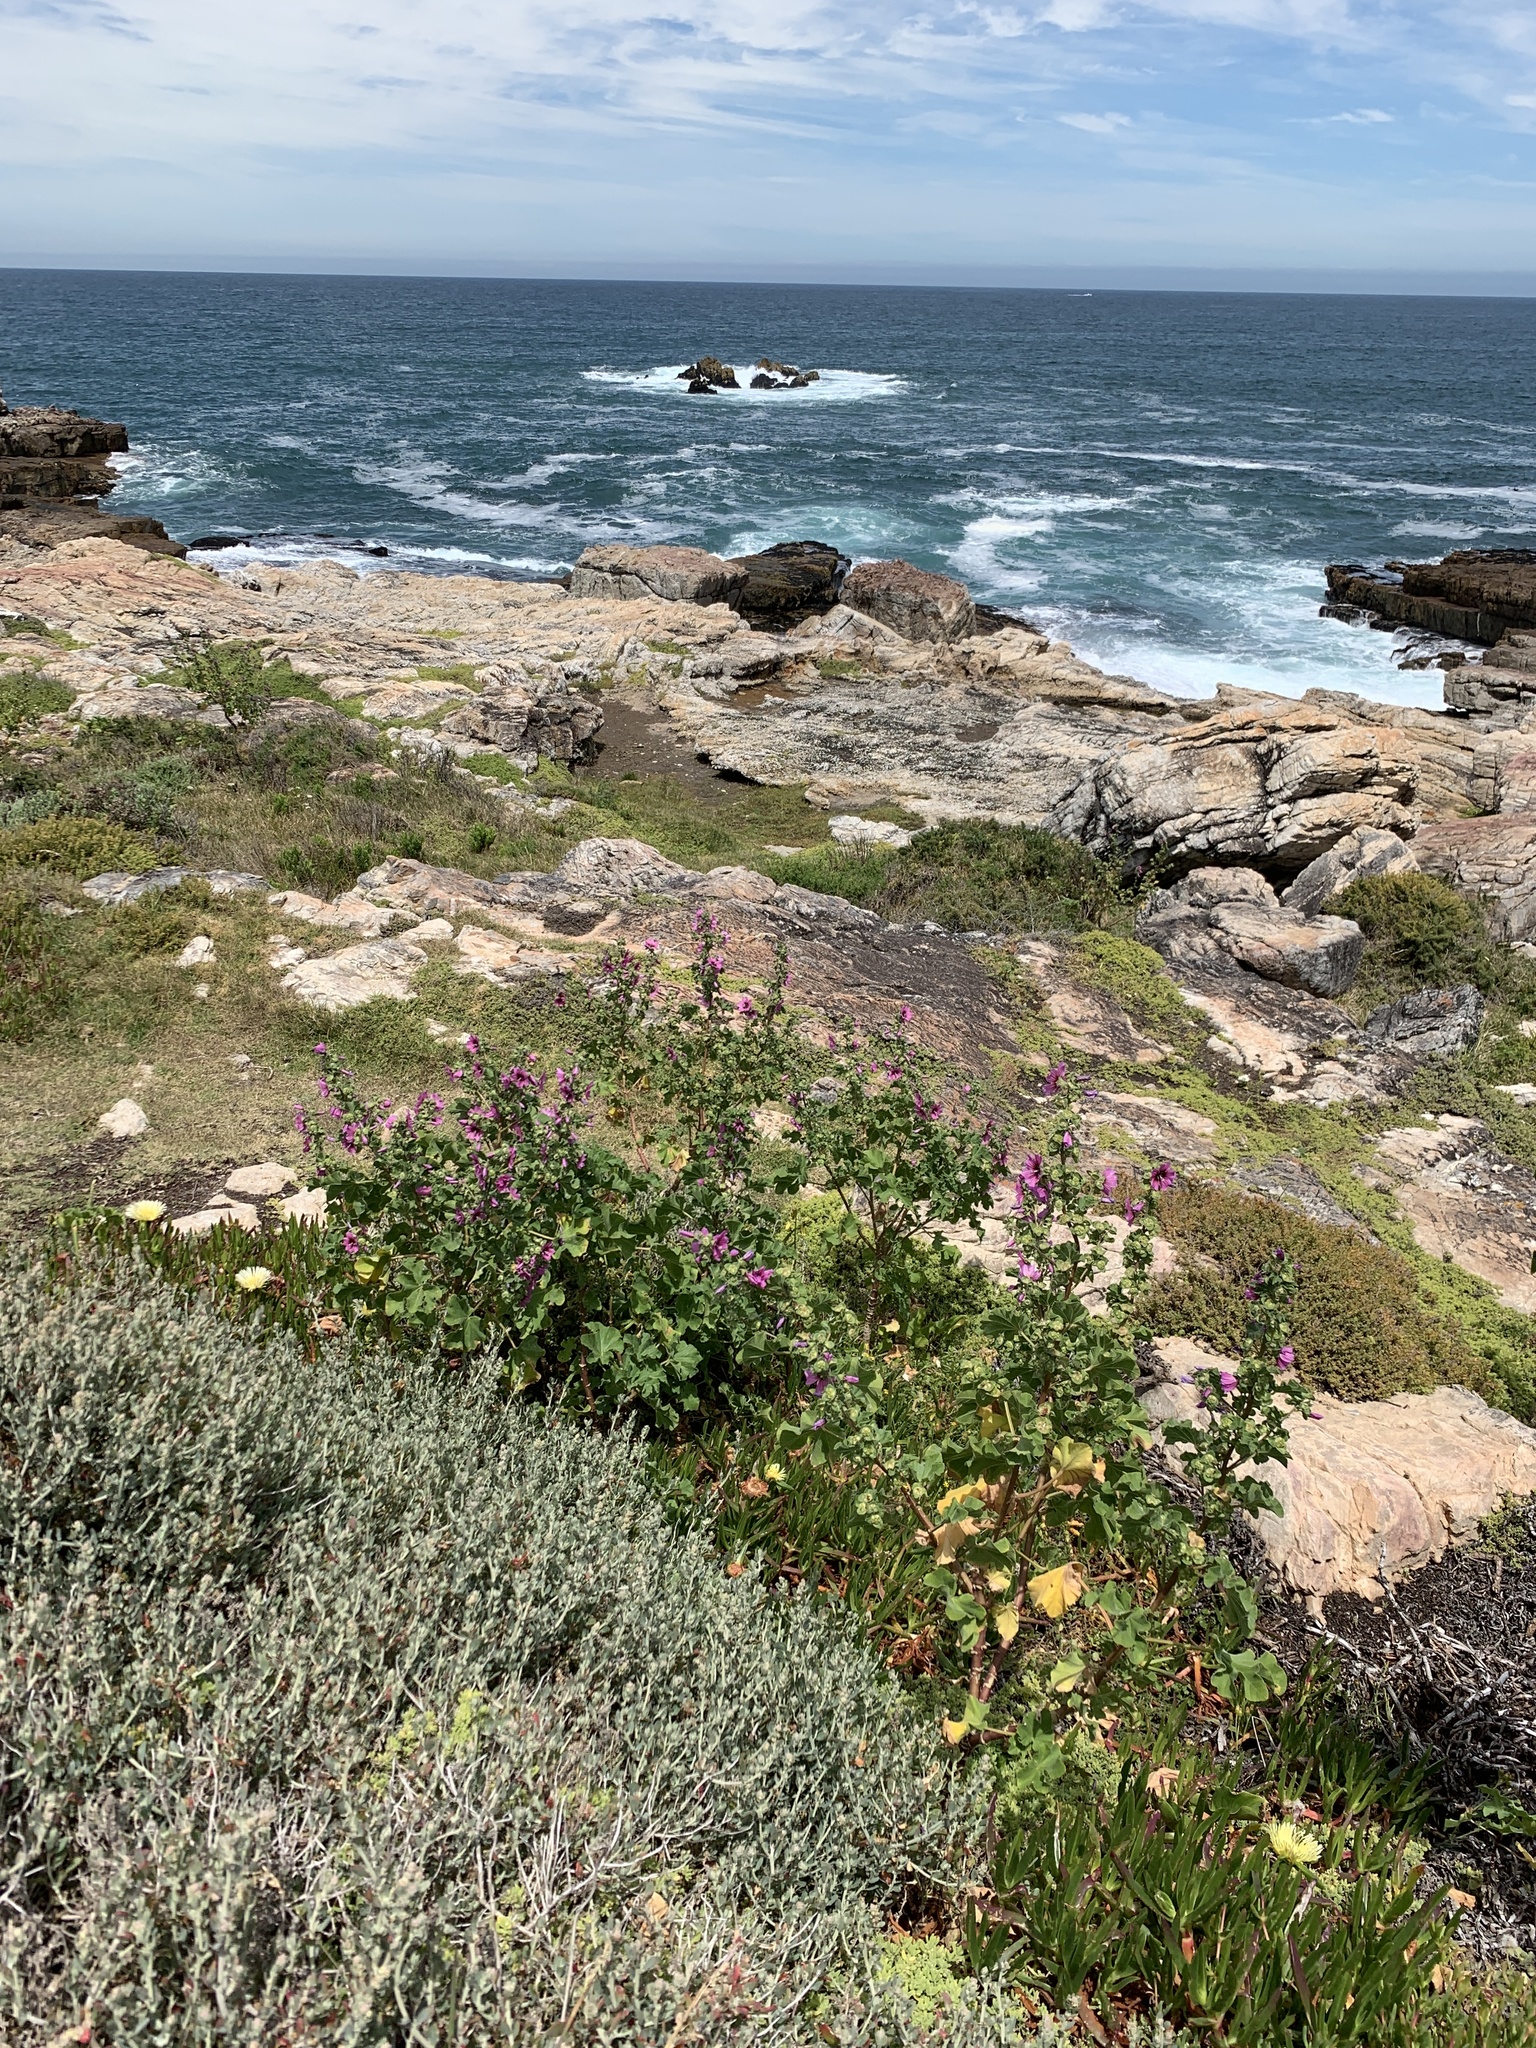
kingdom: Plantae
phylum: Tracheophyta
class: Magnoliopsida
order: Malvales
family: Malvaceae
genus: Malva
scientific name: Malva arborea
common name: Tree mallow
